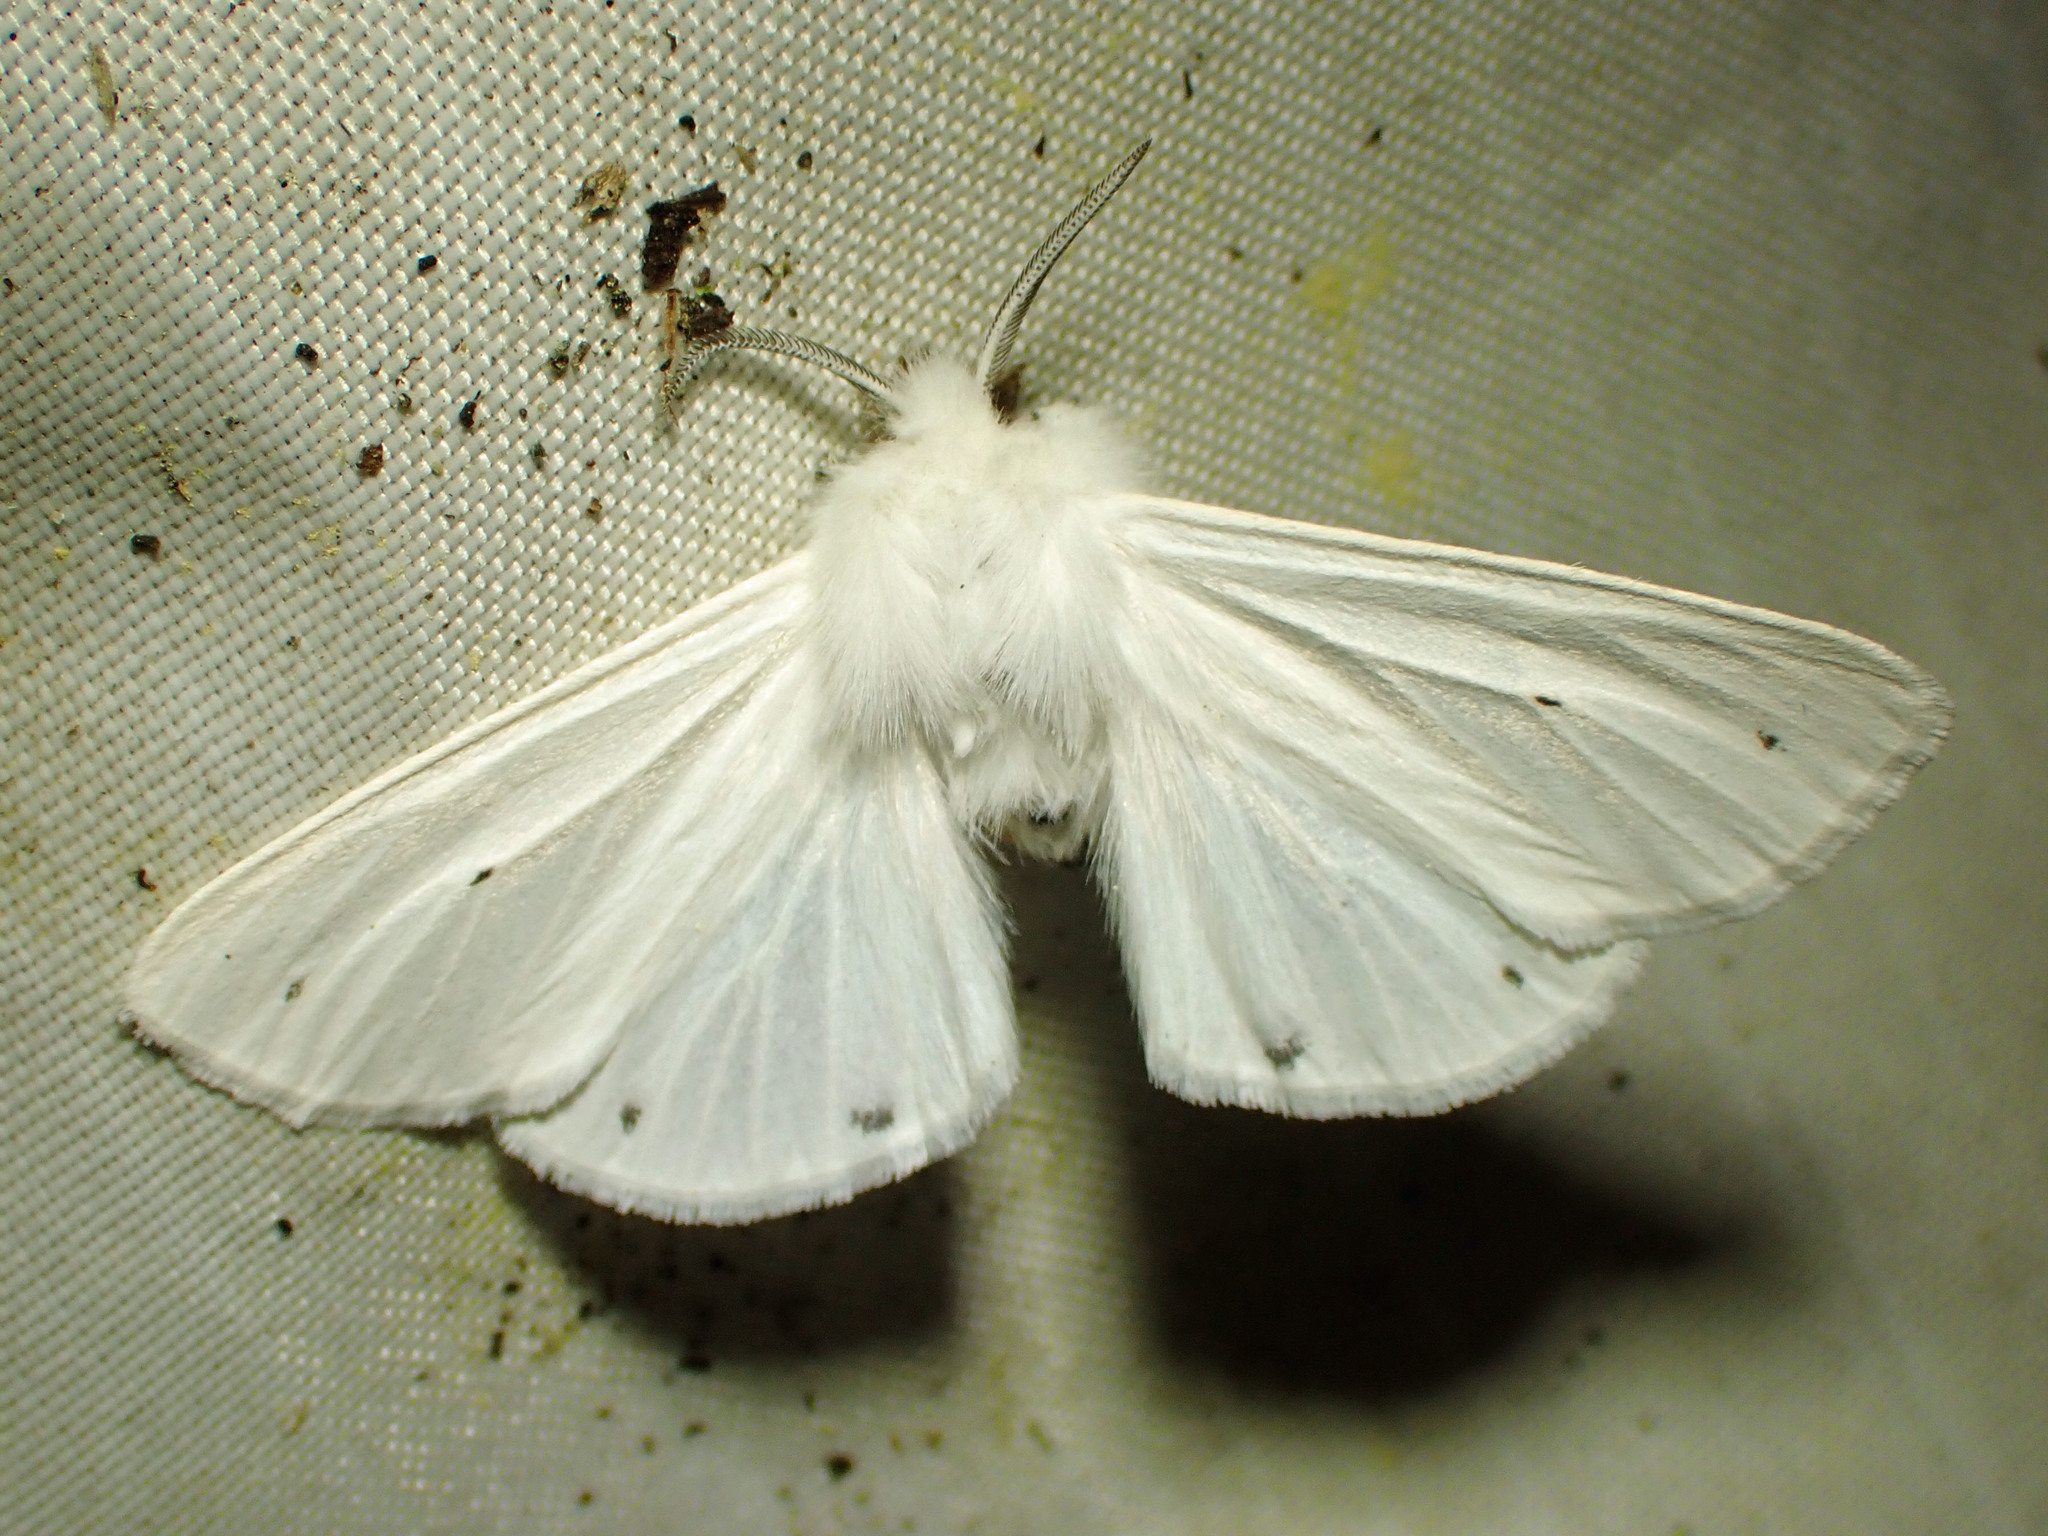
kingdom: Animalia
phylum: Arthropoda
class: Insecta
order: Lepidoptera
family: Erebidae
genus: Spilosoma
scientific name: Spilosoma virginica
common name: Virginia tiger moth
